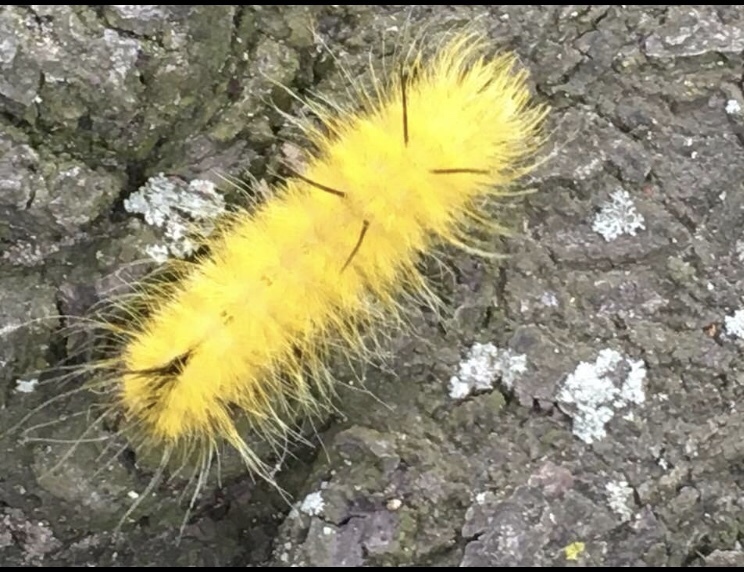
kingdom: Animalia
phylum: Arthropoda
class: Insecta
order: Lepidoptera
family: Noctuidae
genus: Acronicta
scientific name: Acronicta americana
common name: American dagger
